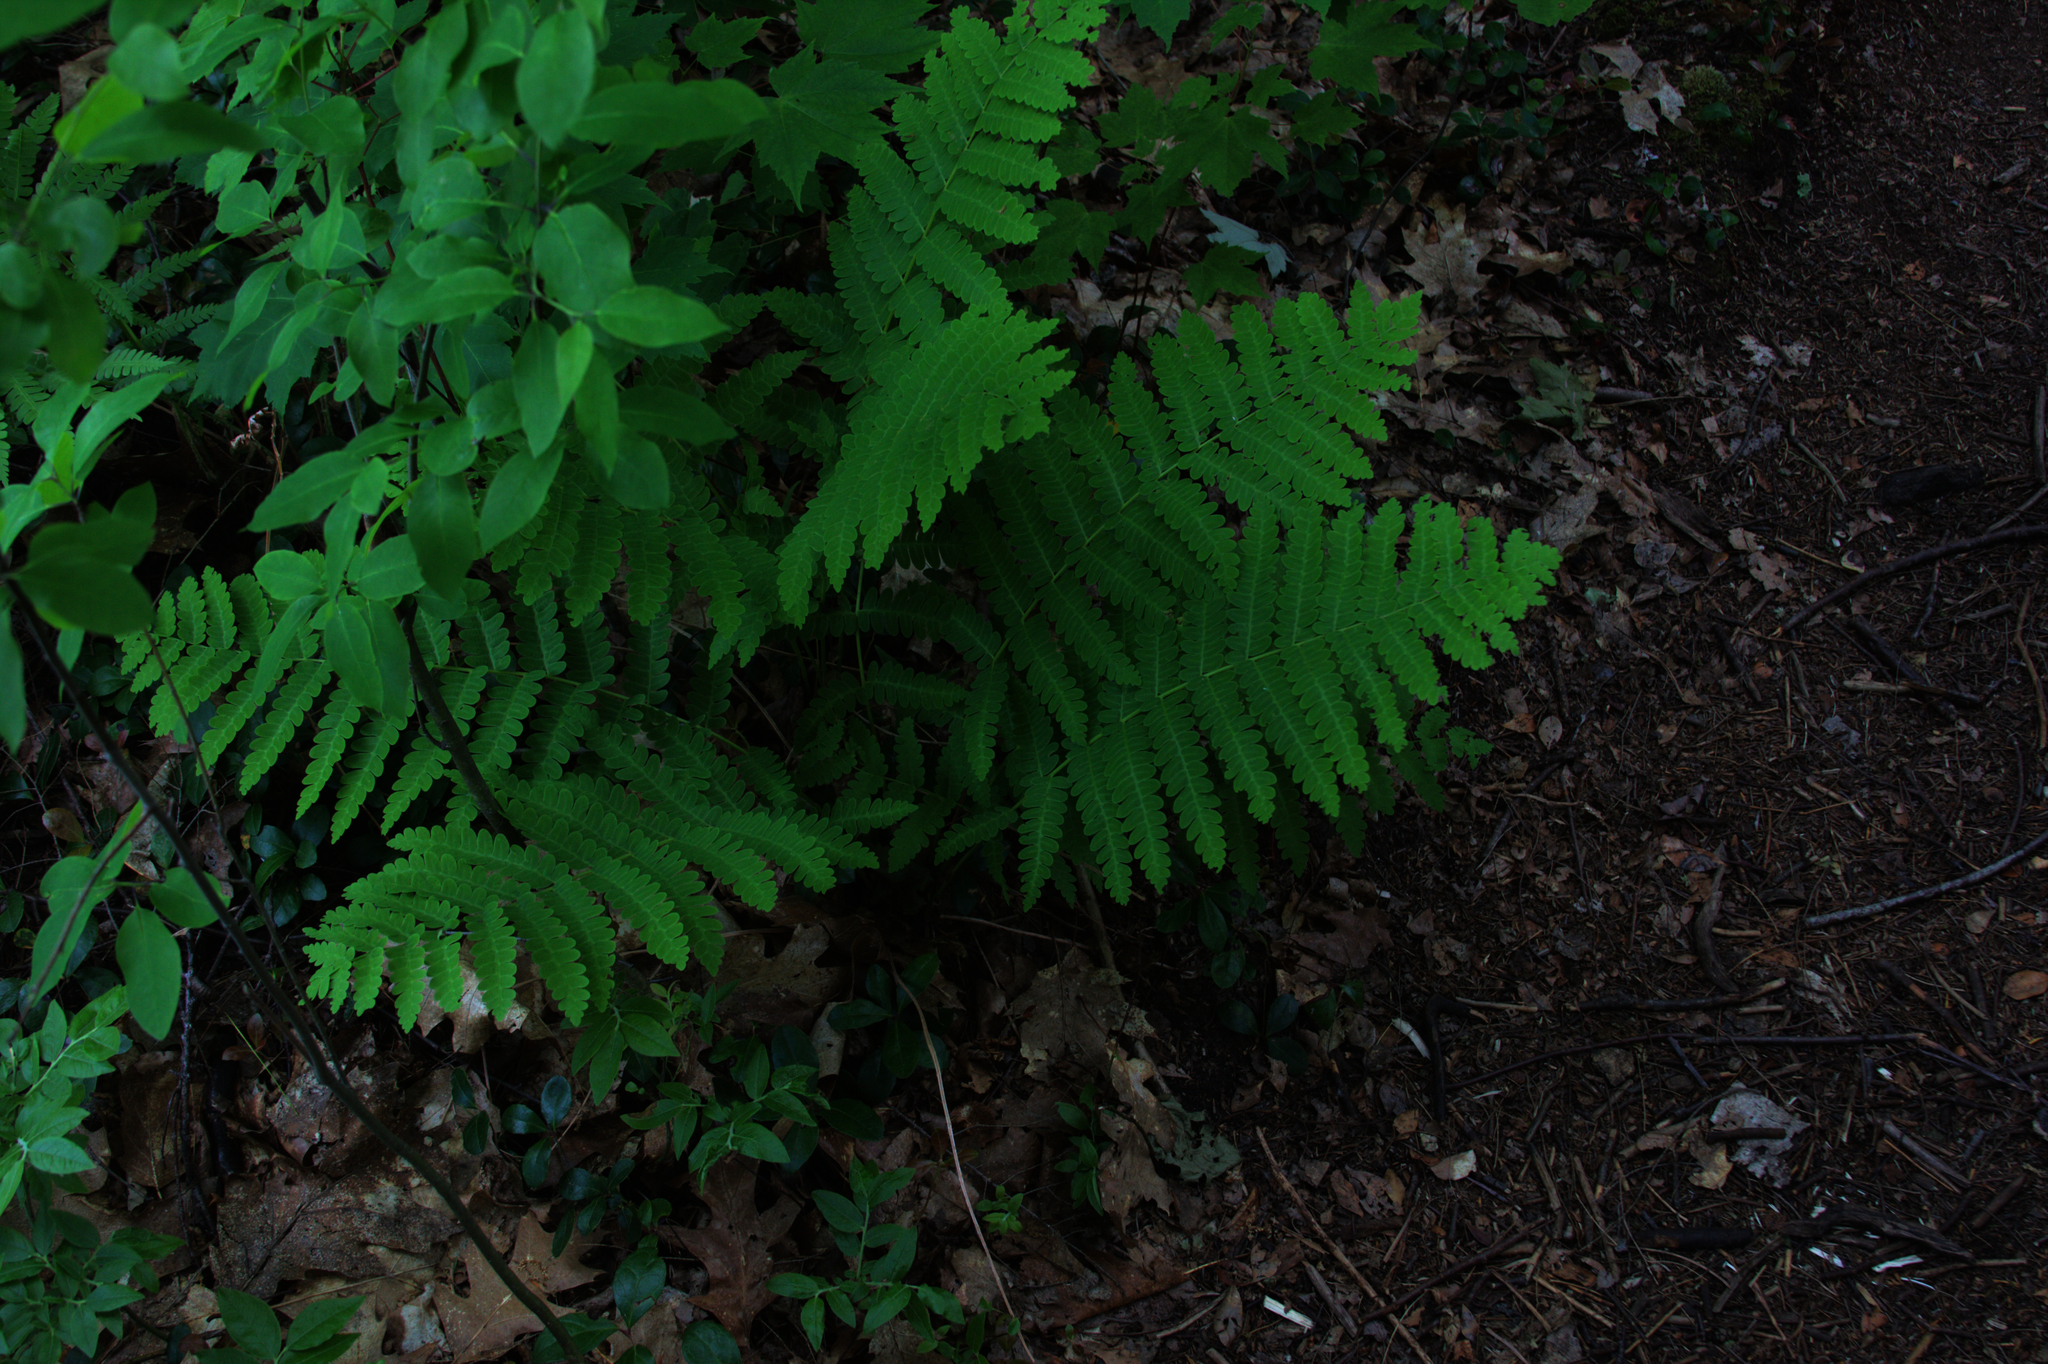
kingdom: Plantae
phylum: Tracheophyta
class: Polypodiopsida
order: Osmundales
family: Osmundaceae
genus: Claytosmunda
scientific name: Claytosmunda claytoniana
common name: Clayton's fern
